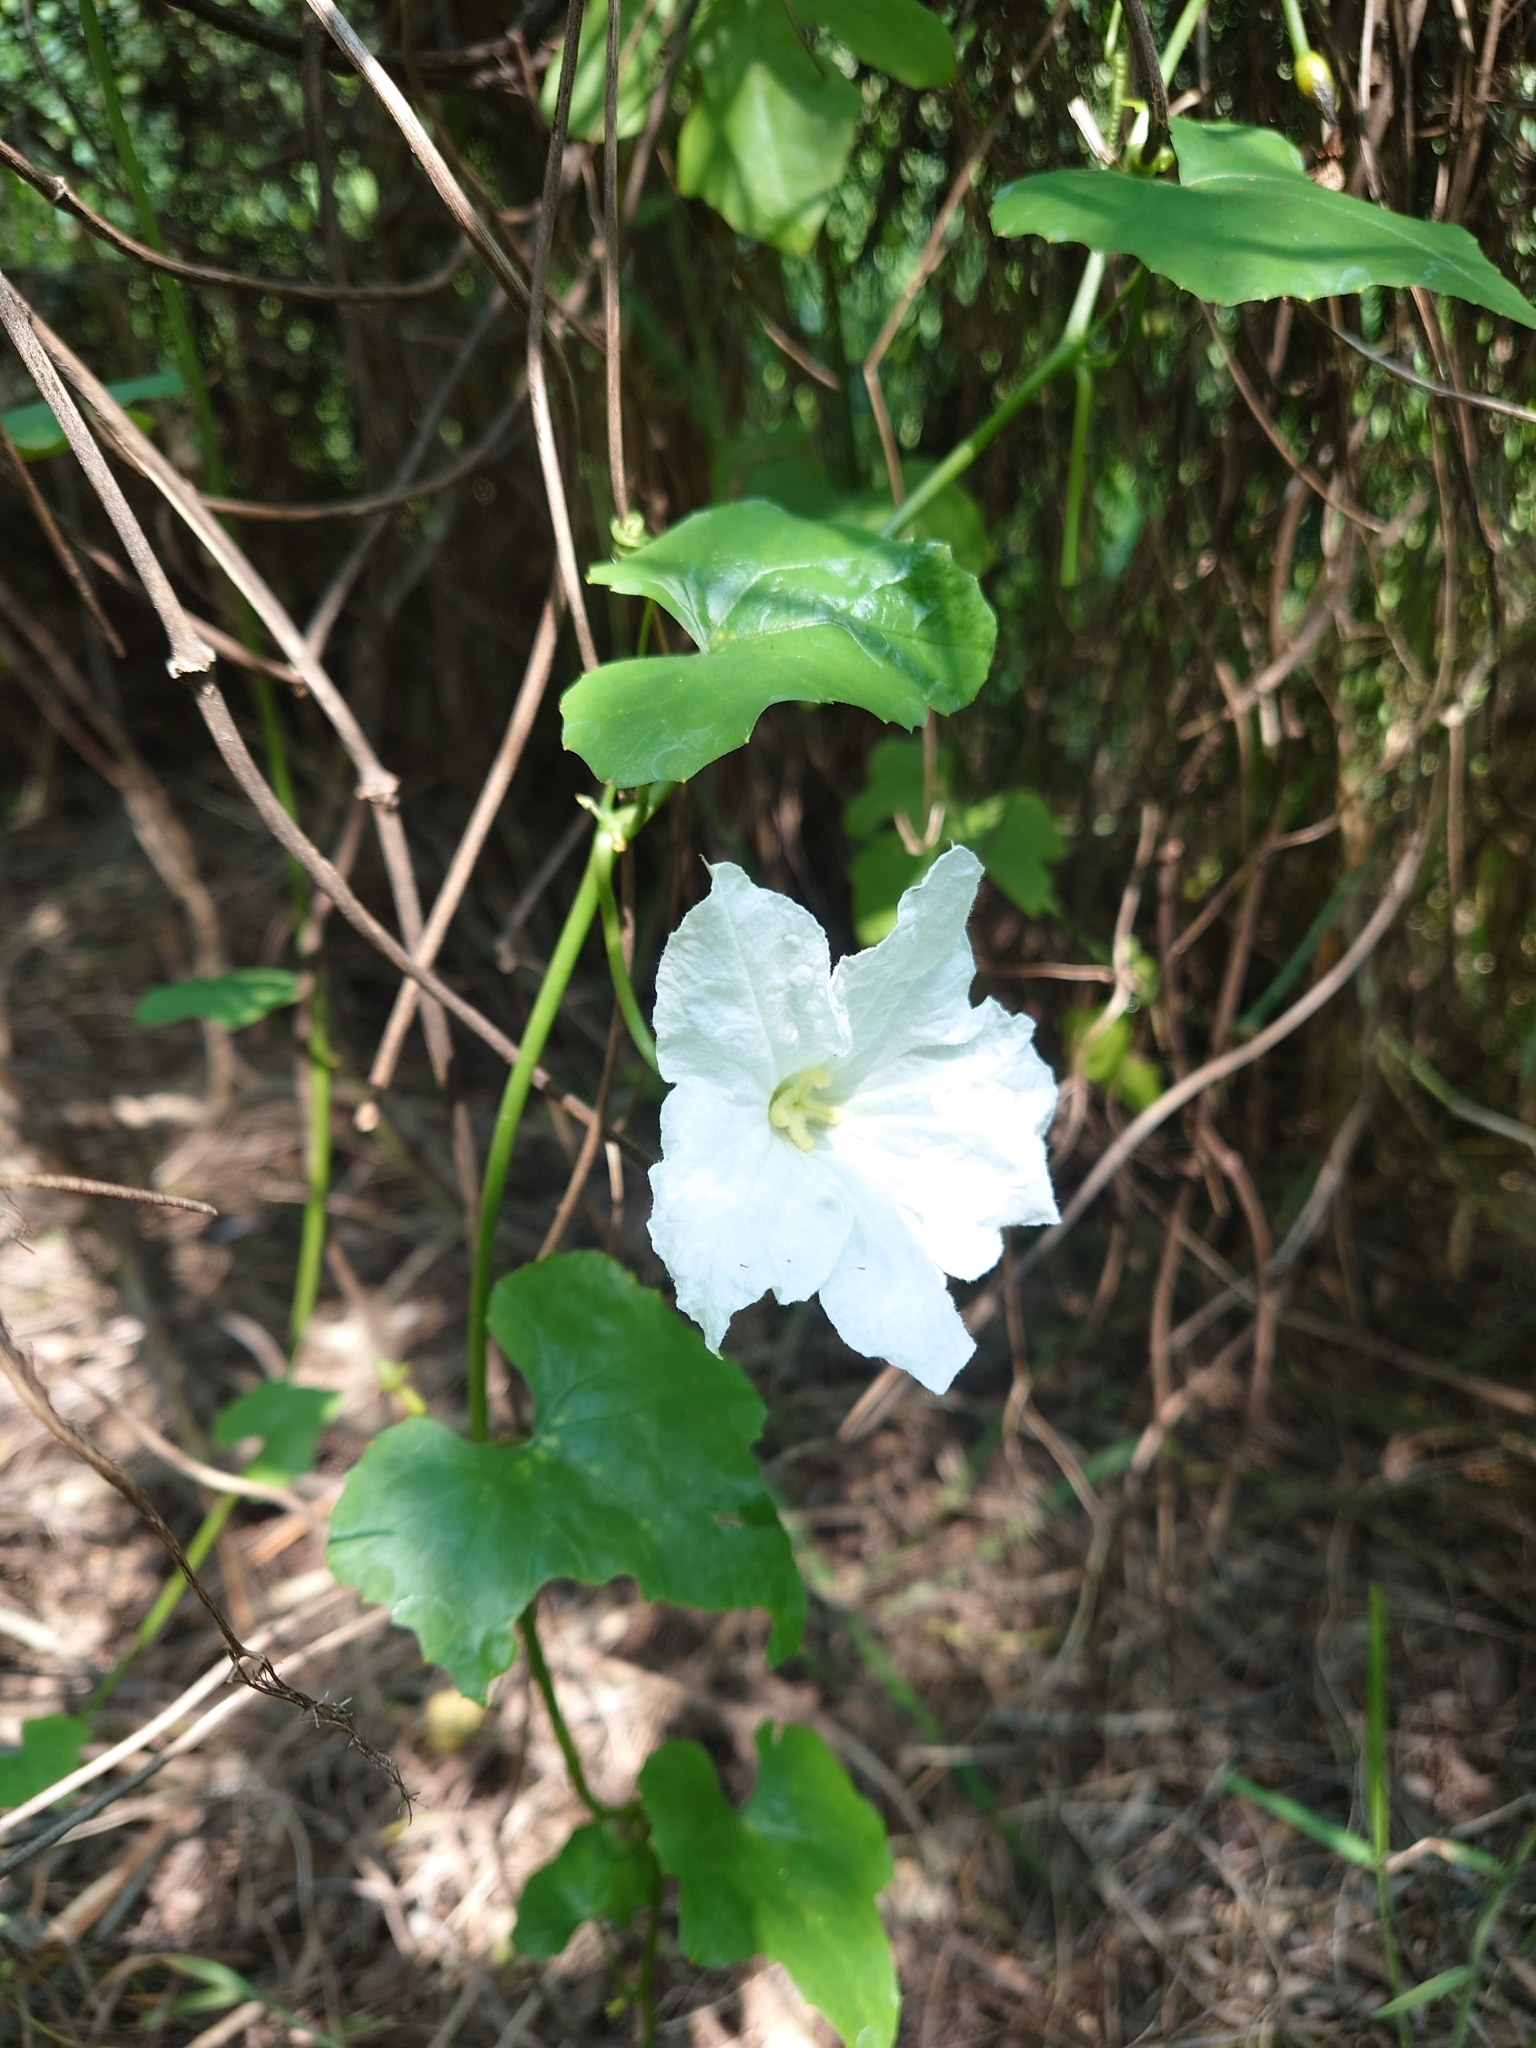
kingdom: Plantae
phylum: Tracheophyta
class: Magnoliopsida
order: Cucurbitales
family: Cucurbitaceae
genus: Coccinia
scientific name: Coccinia grandis
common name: Ivy gourd
